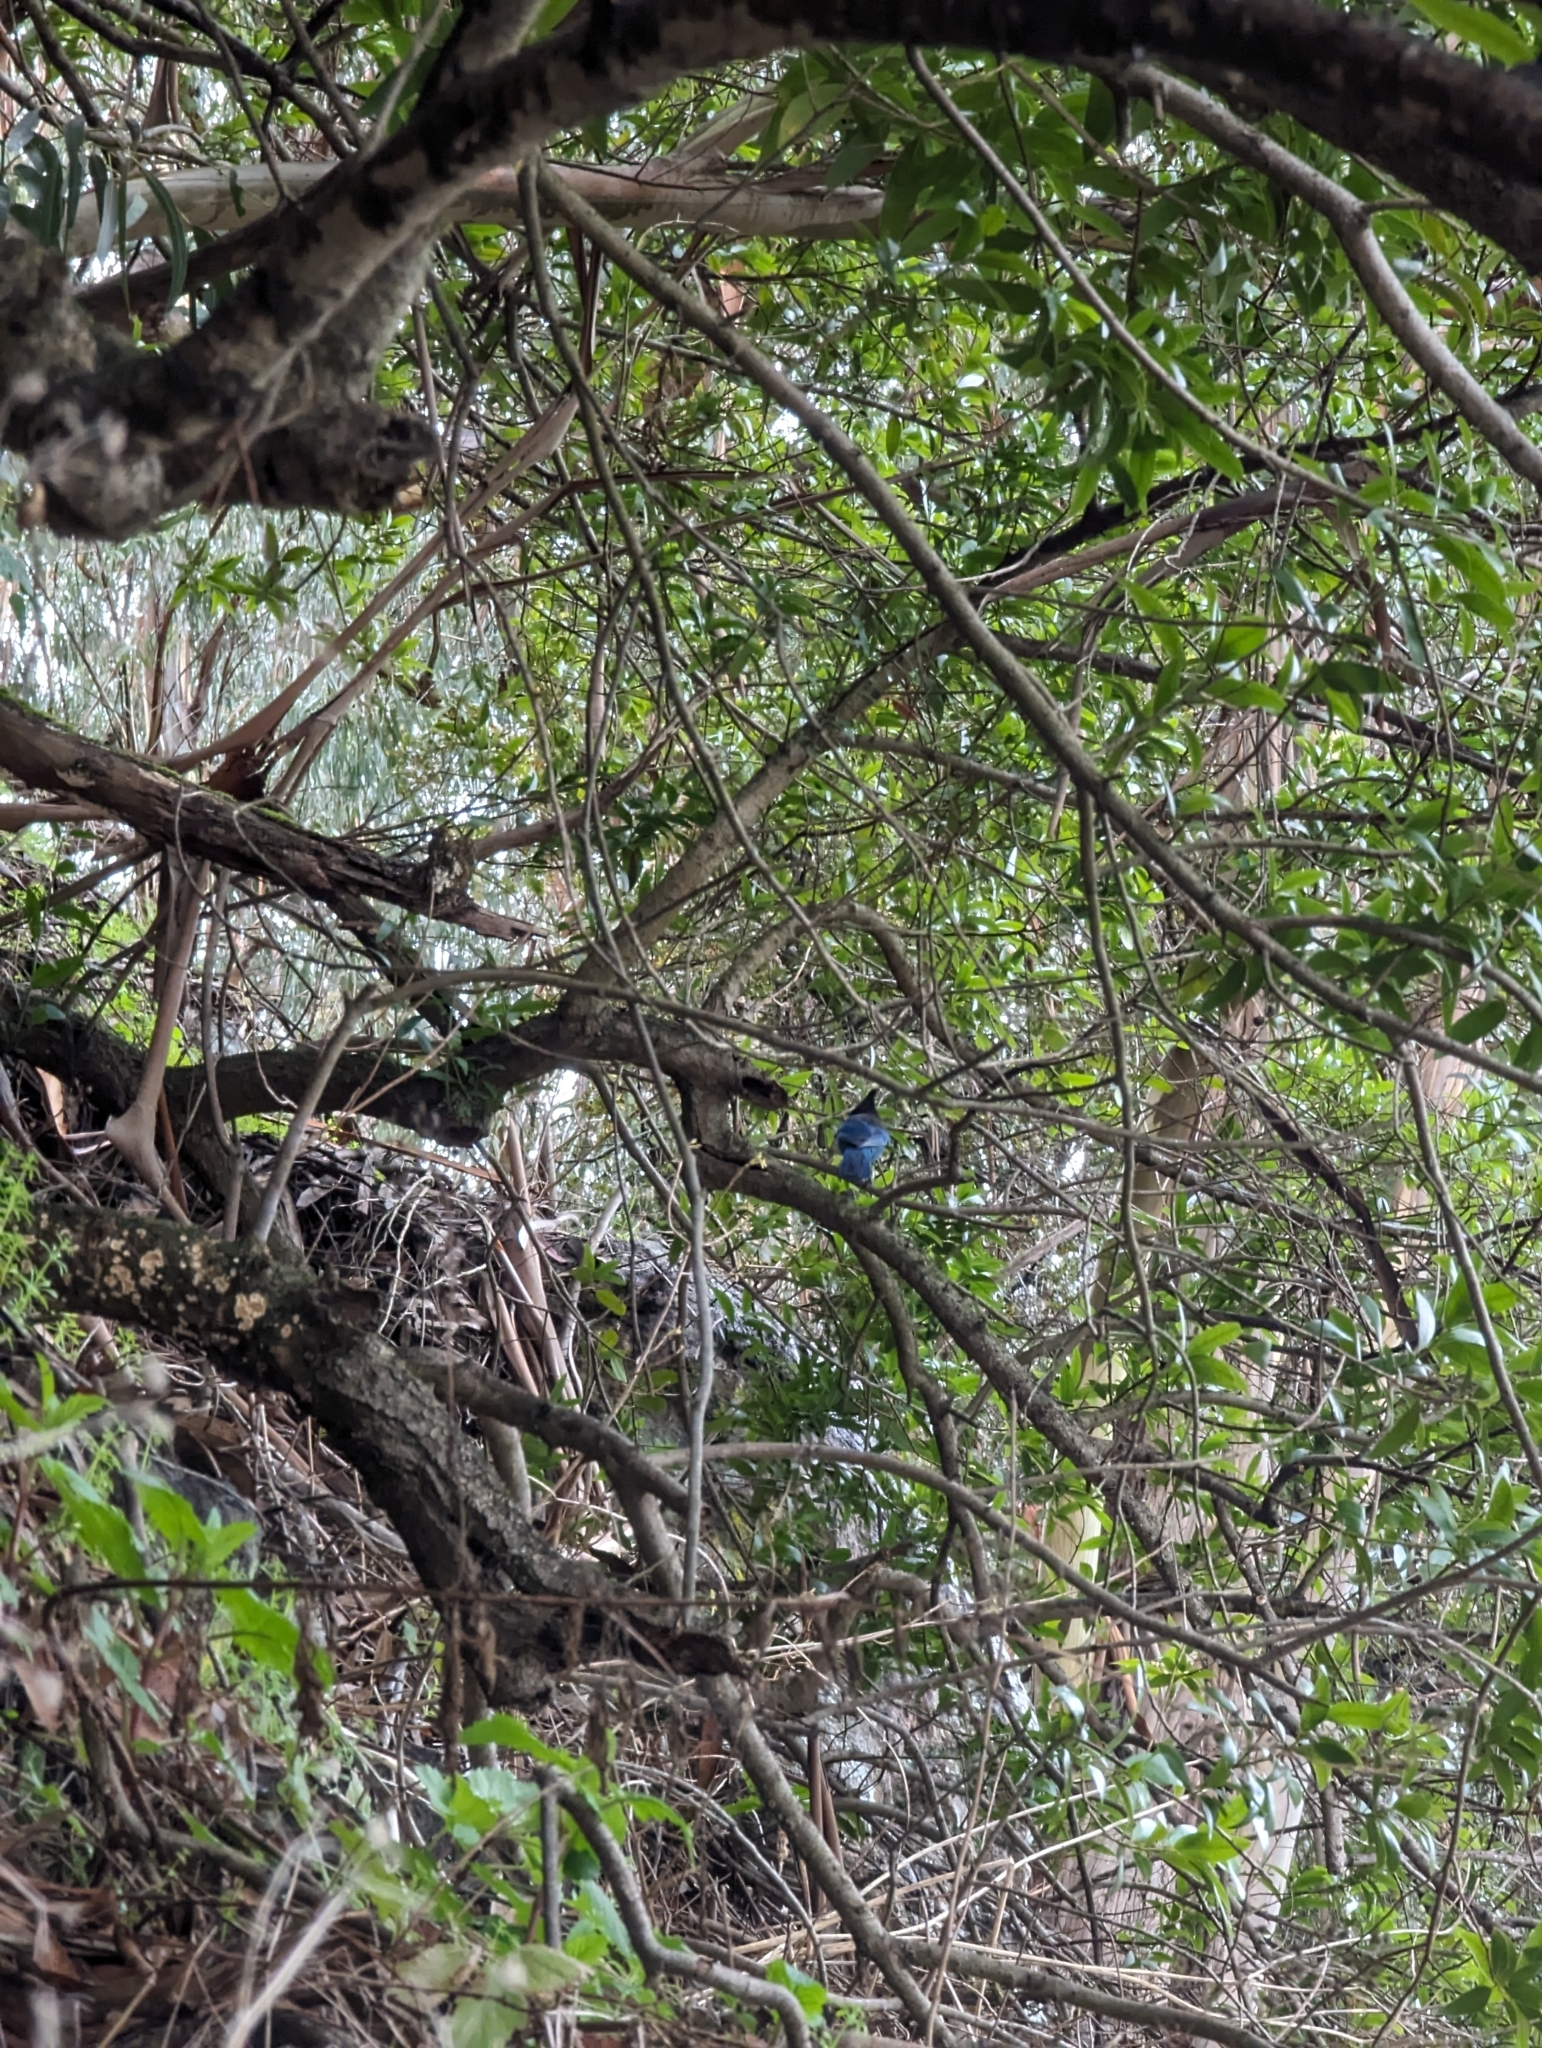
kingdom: Animalia
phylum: Chordata
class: Aves
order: Passeriformes
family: Corvidae
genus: Cyanocitta
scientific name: Cyanocitta stelleri
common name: Steller's jay
